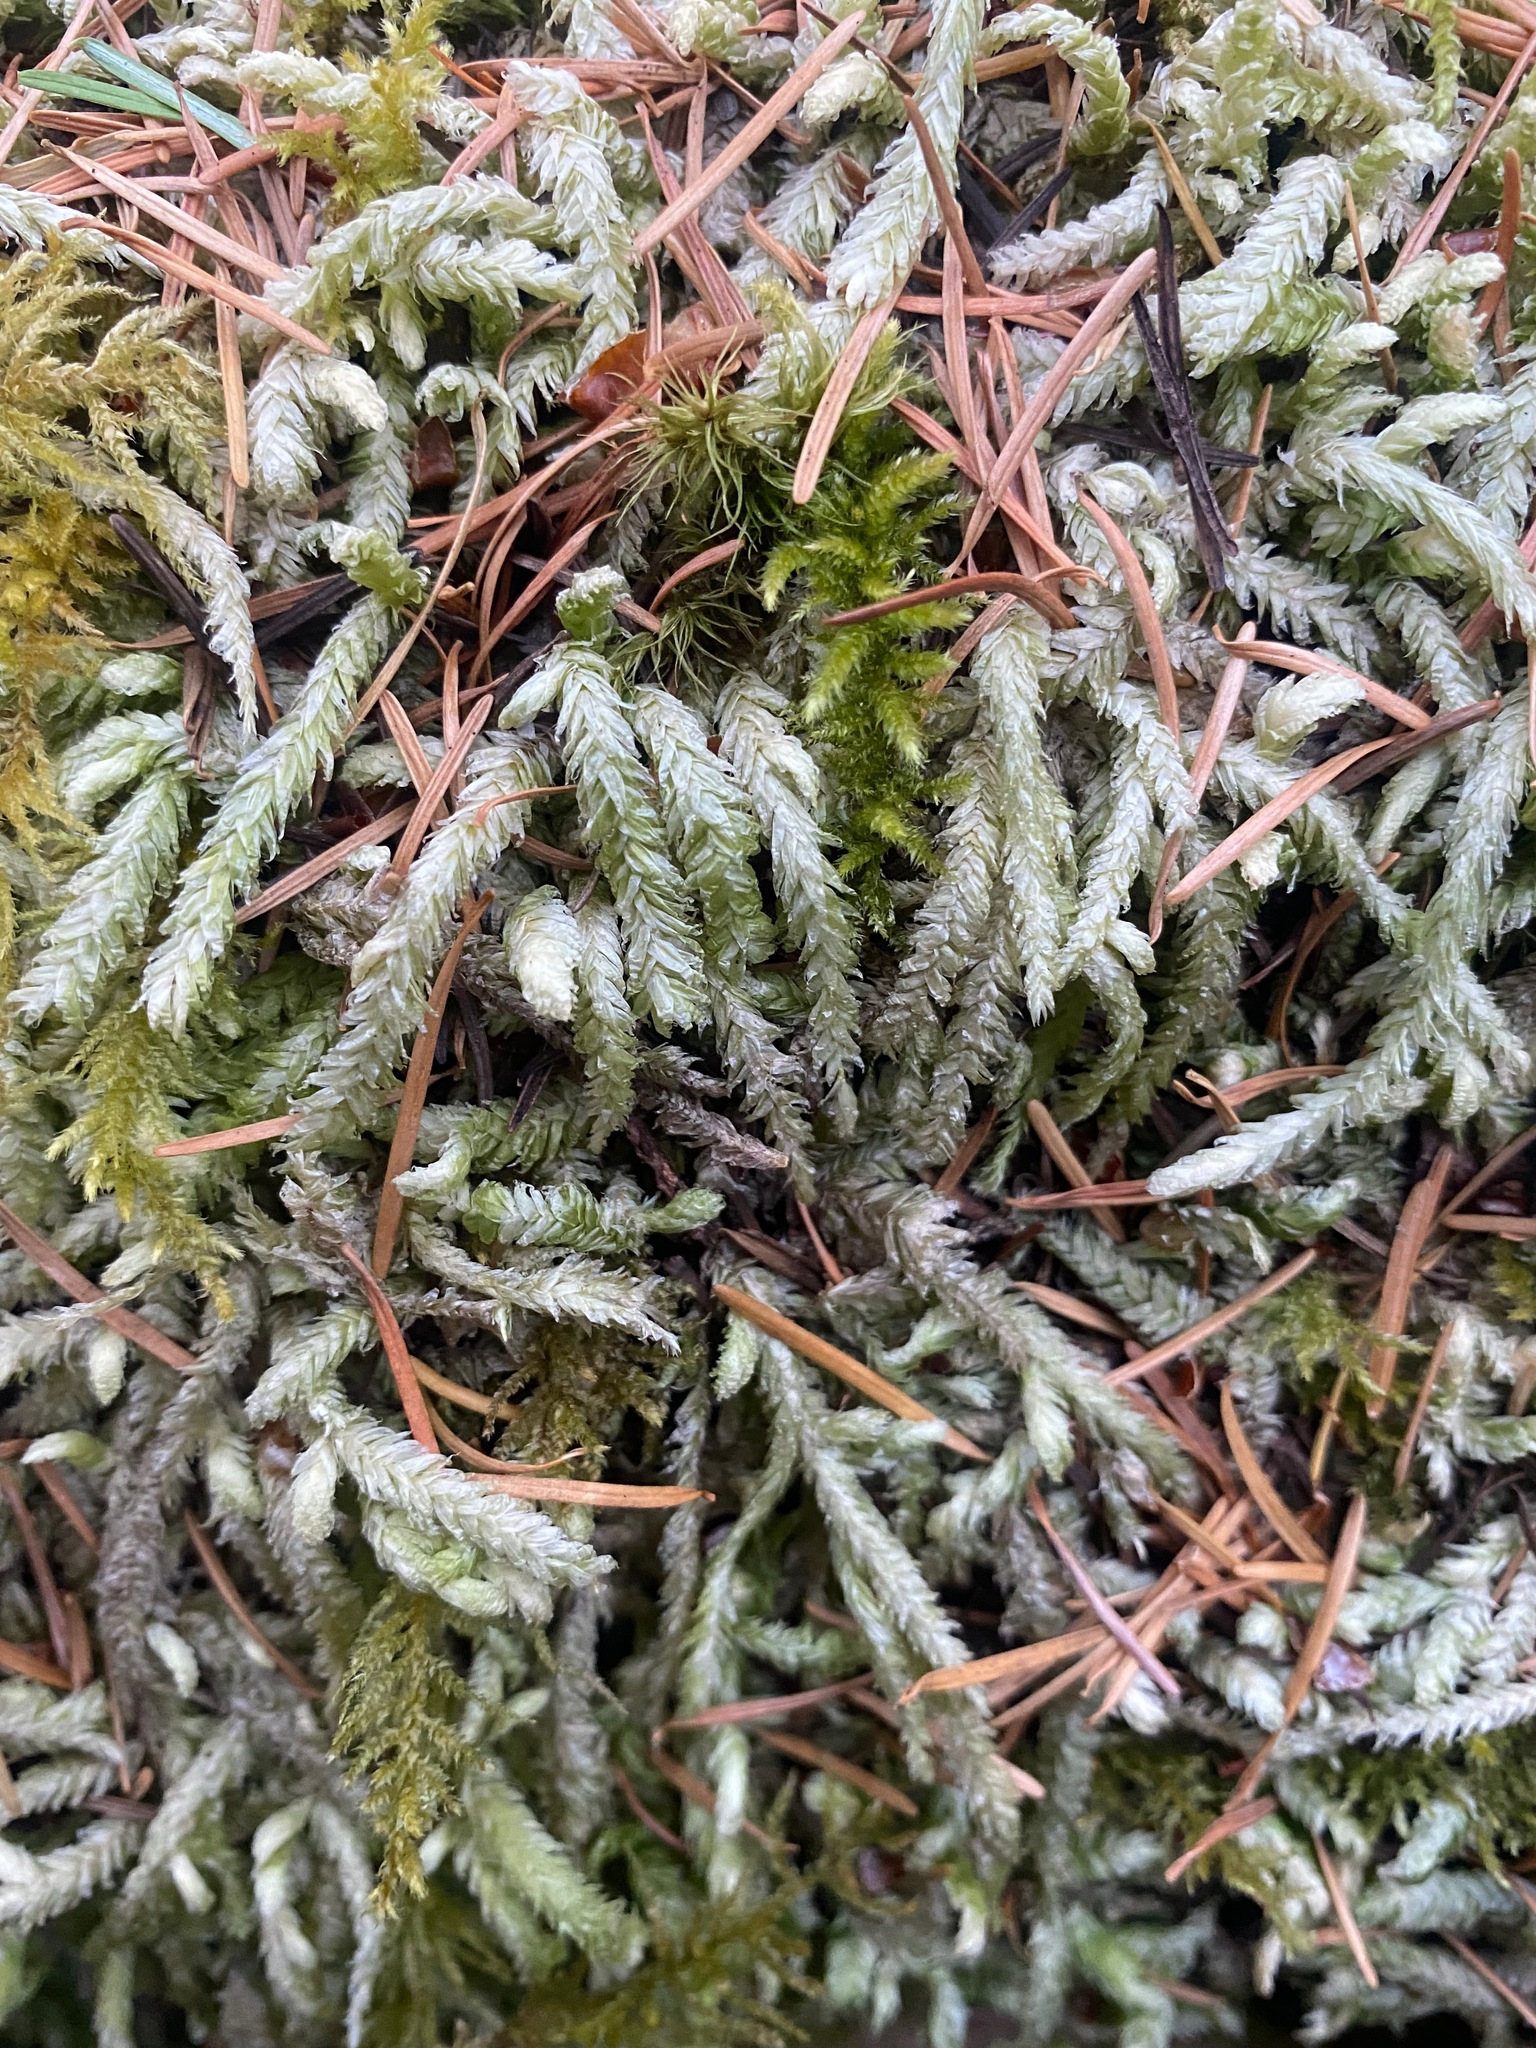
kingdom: Plantae
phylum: Bryophyta
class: Bryopsida
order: Hypnales
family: Plagiotheciaceae
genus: Plagiothecium
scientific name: Plagiothecium undulatum
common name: Waved silk-moss
